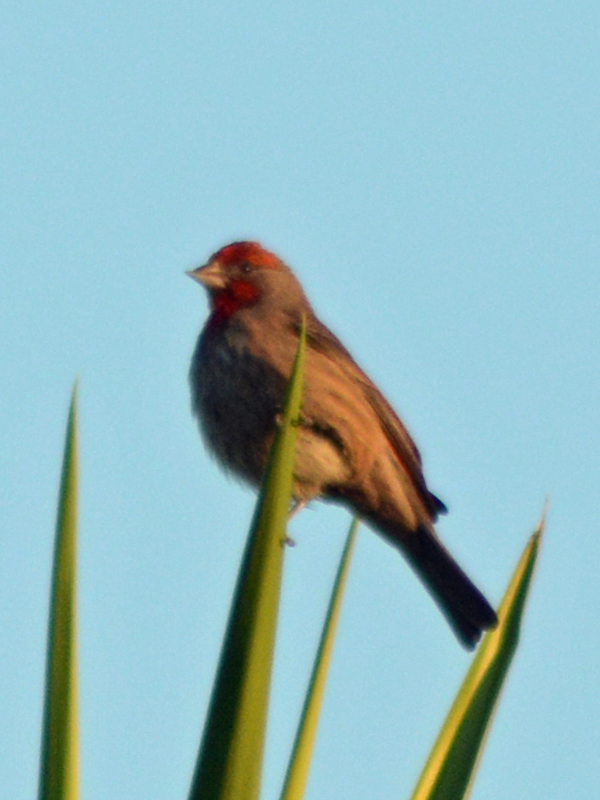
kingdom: Animalia
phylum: Chordata
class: Aves
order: Passeriformes
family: Fringillidae
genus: Haemorhous
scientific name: Haemorhous mexicanus
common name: House finch
